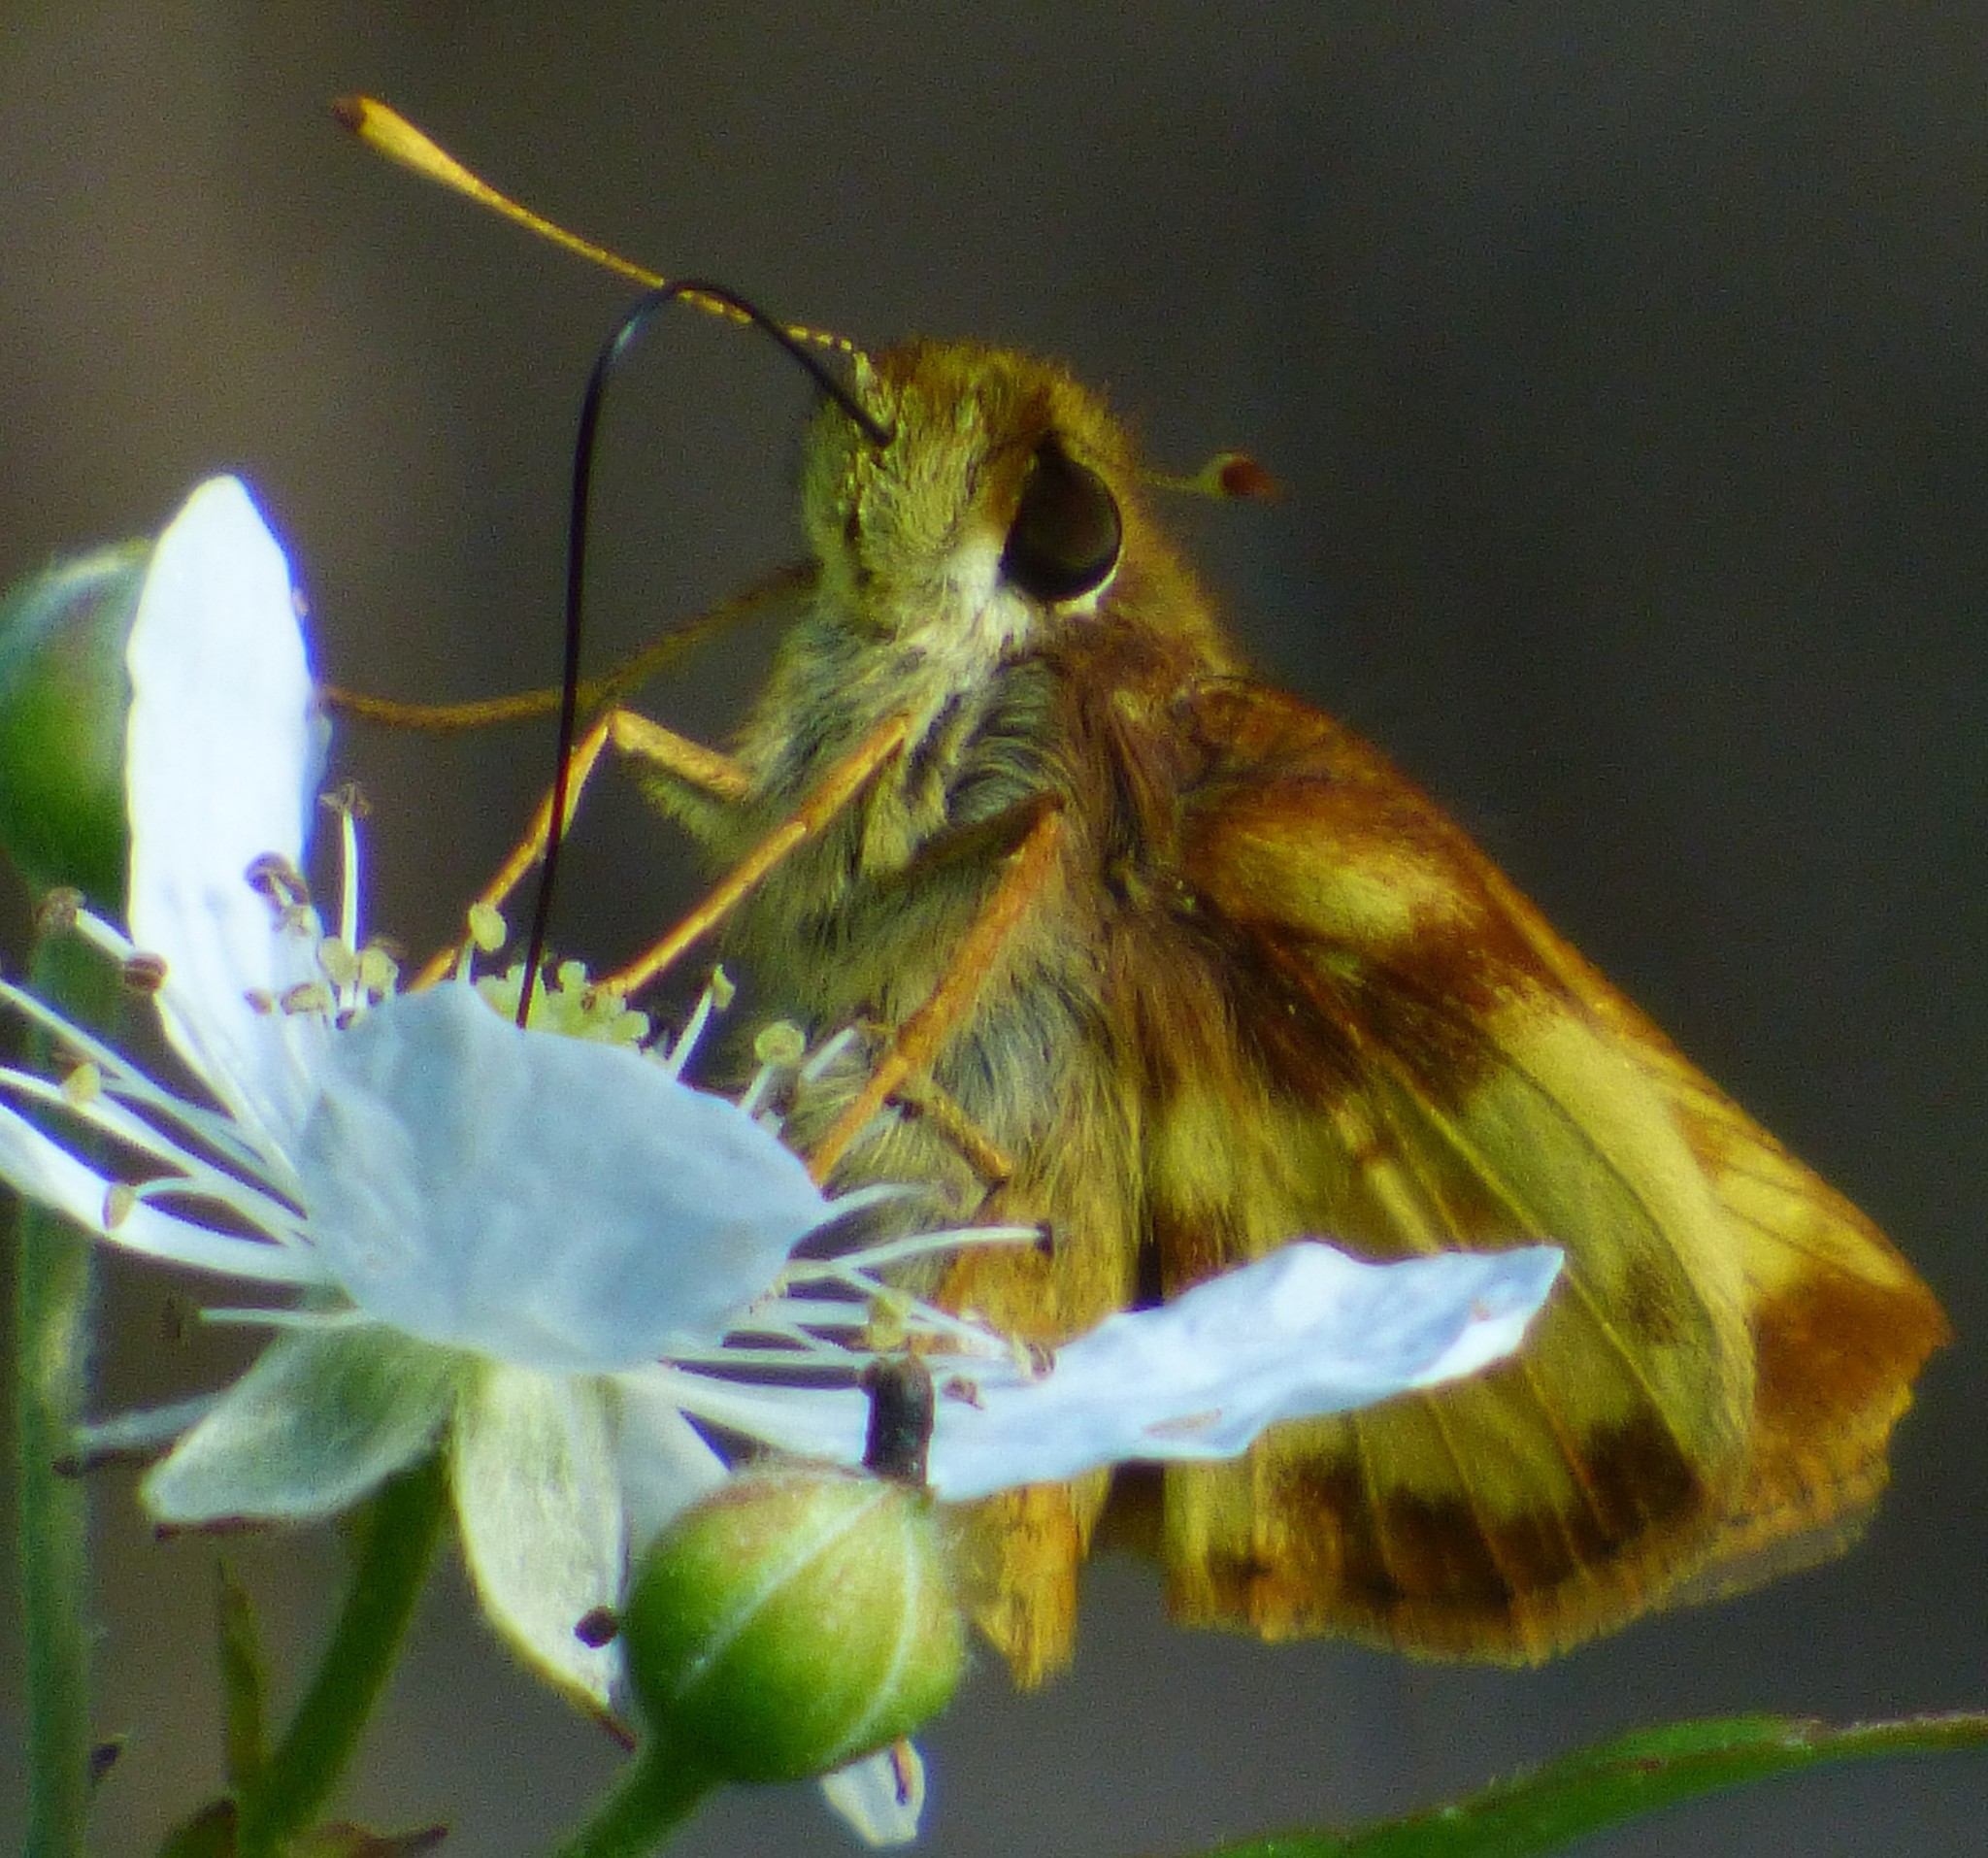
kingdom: Animalia
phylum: Arthropoda
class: Insecta
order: Lepidoptera
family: Hesperiidae
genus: Lon
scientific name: Lon zabulon
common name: Zabulon skipper
